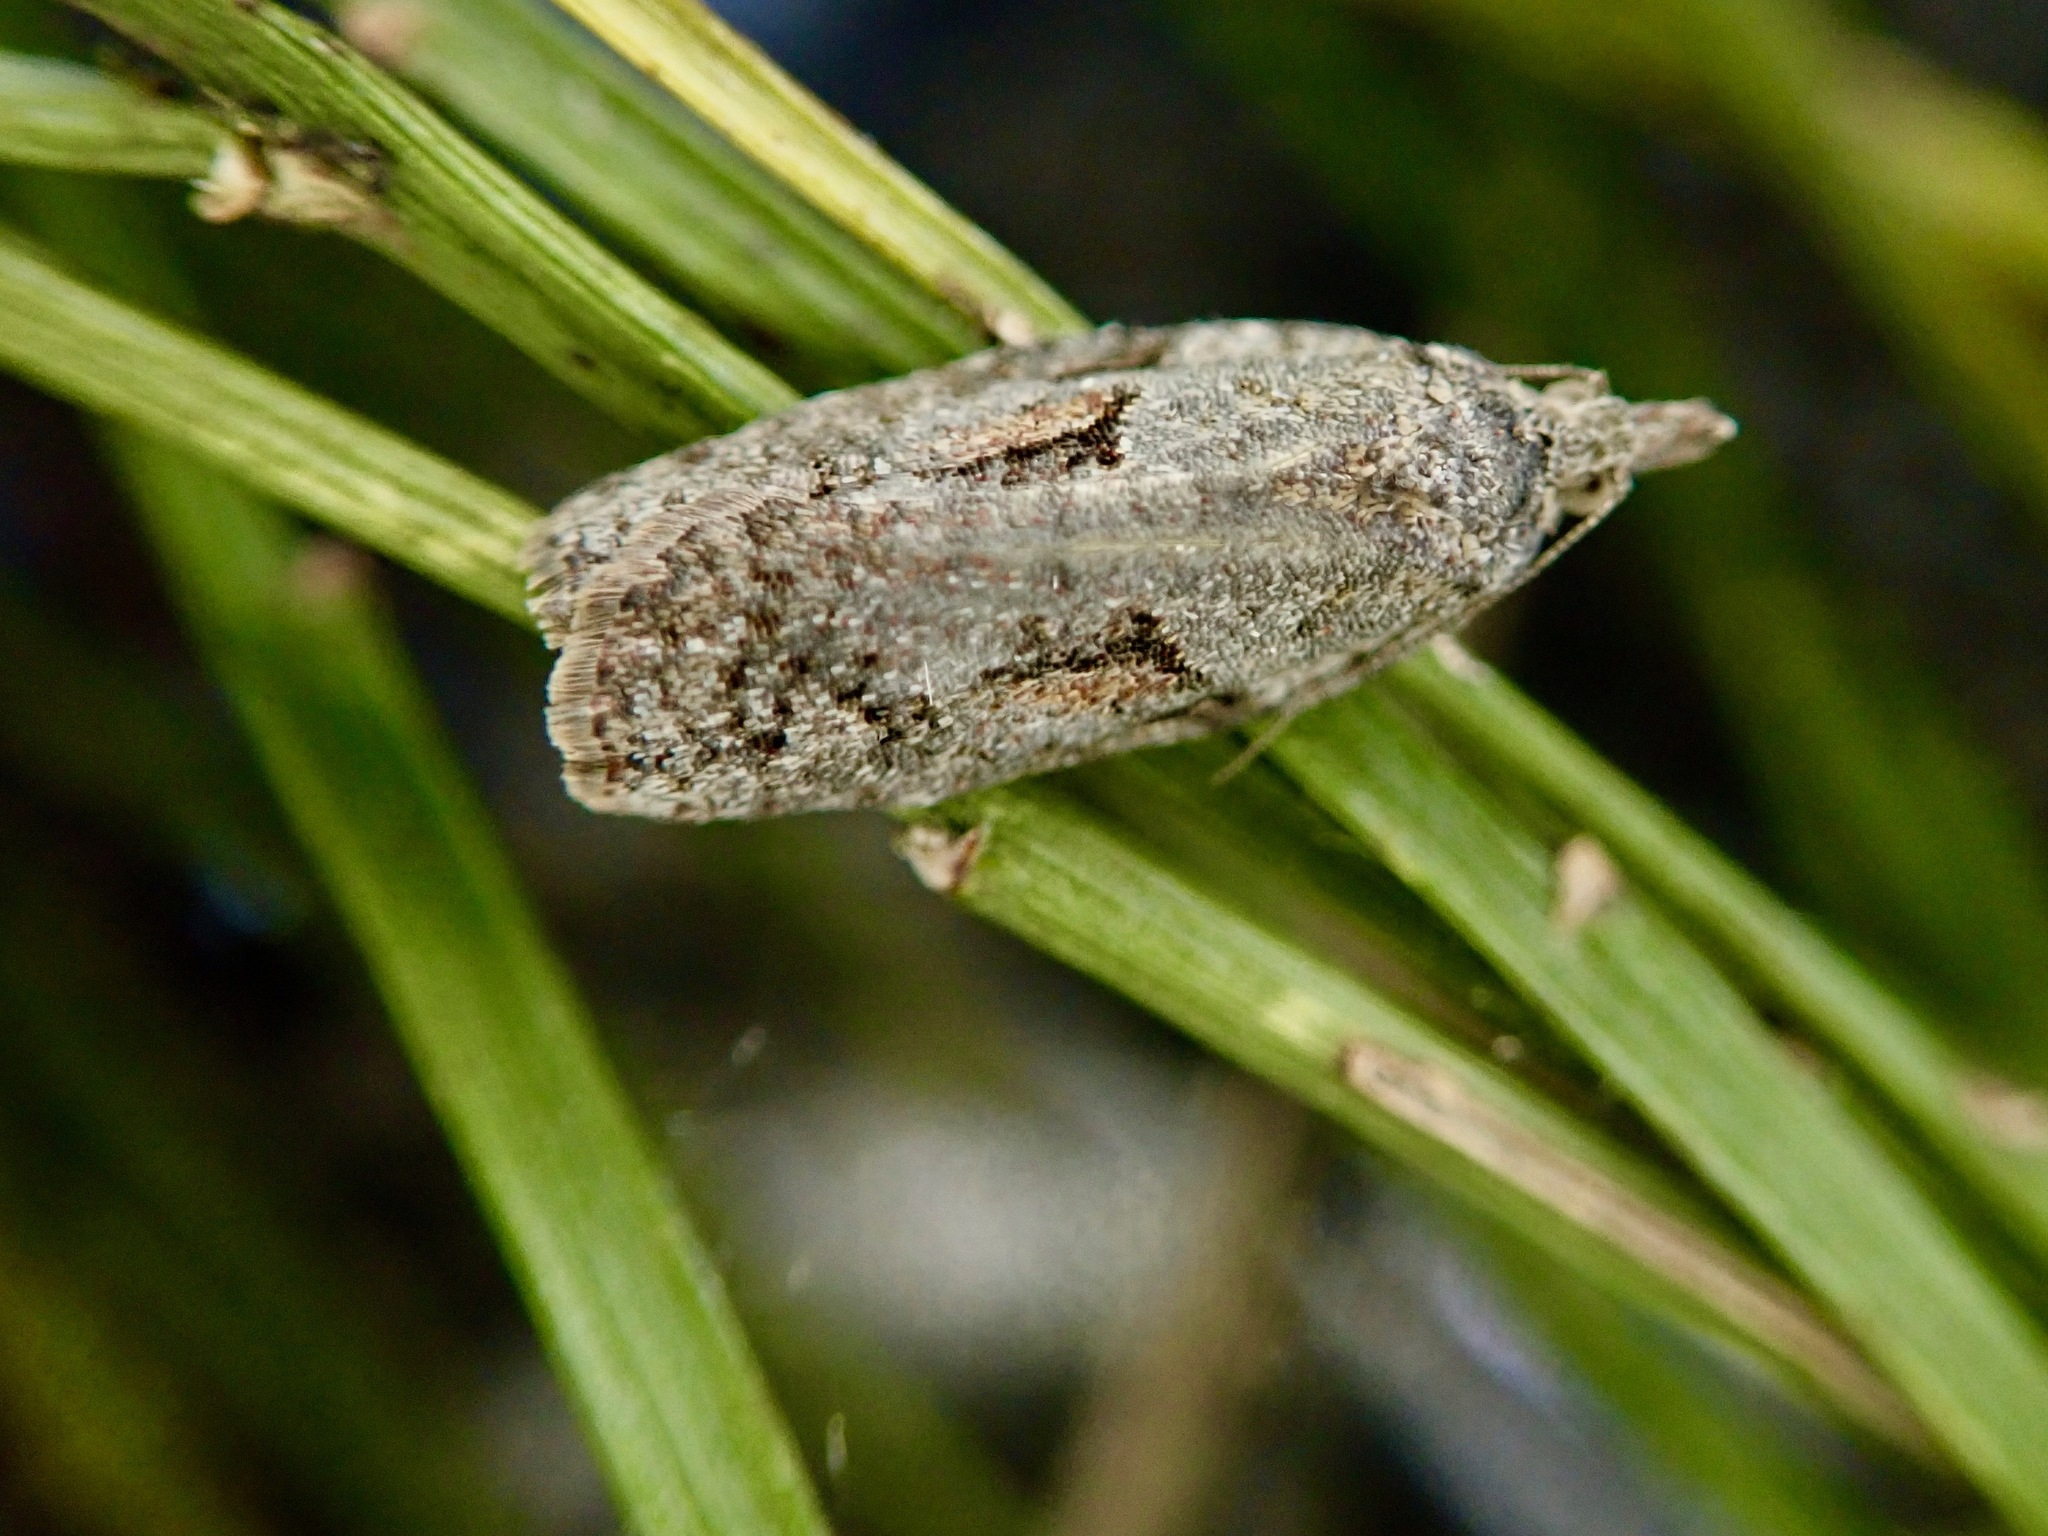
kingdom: Animalia
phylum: Arthropoda
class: Insecta
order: Lepidoptera
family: Tortricidae
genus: Harmologa
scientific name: Harmologa oblongana
